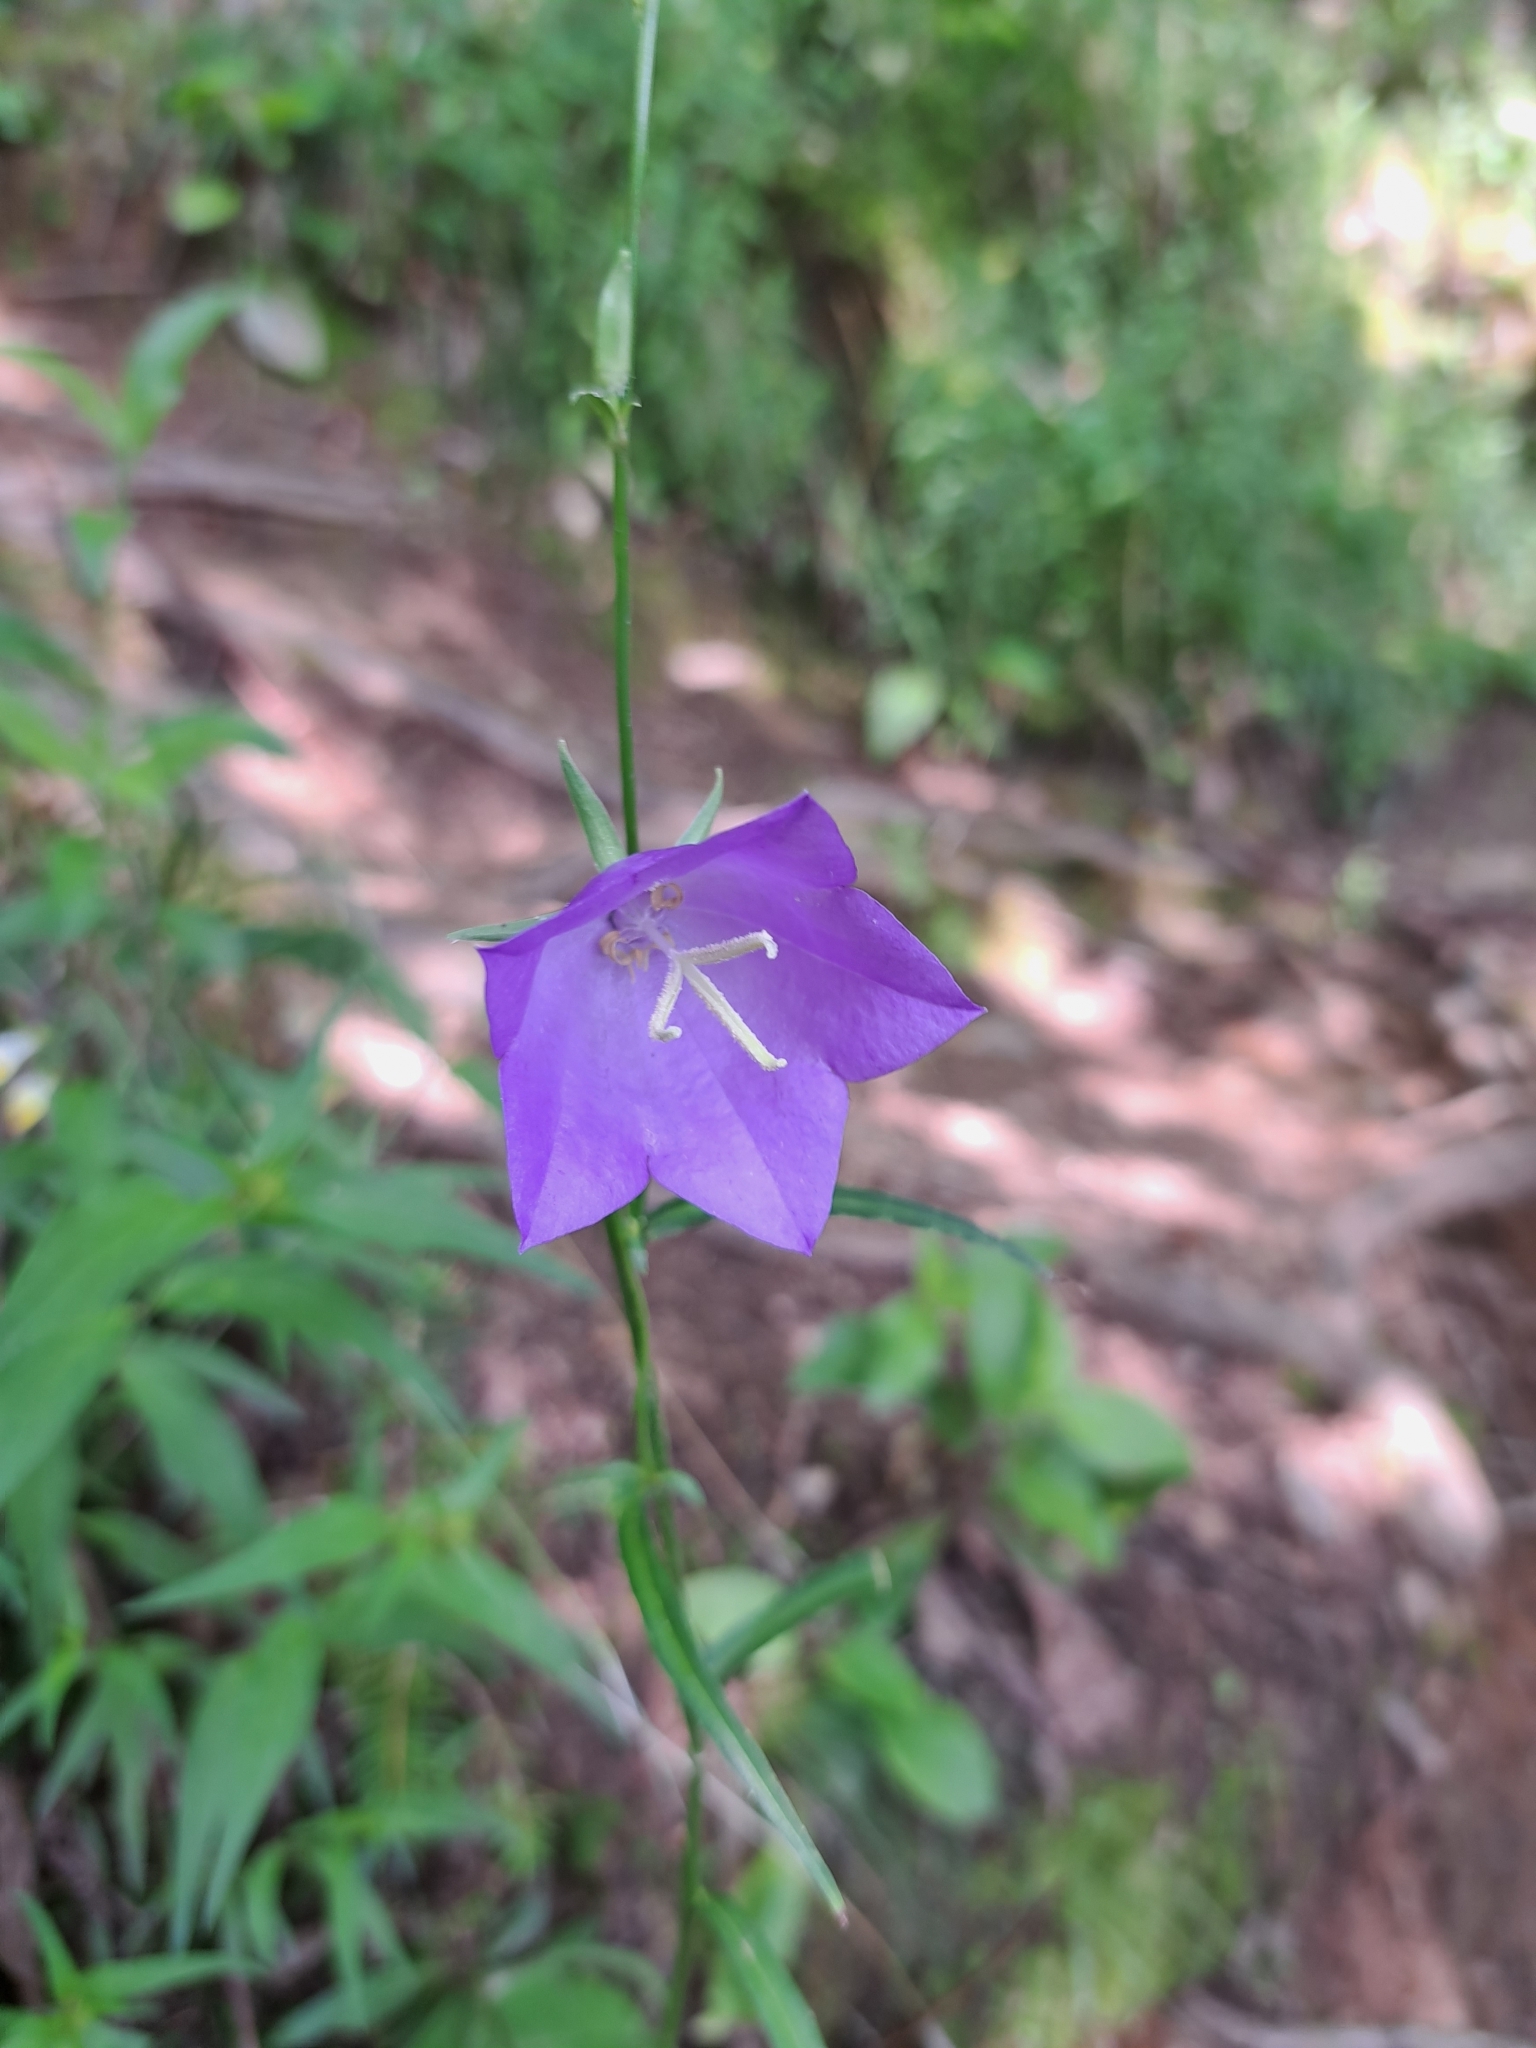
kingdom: Plantae
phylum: Tracheophyta
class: Magnoliopsida
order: Asterales
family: Campanulaceae
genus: Campanula
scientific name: Campanula persicifolia
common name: Peach-leaved bellflower
